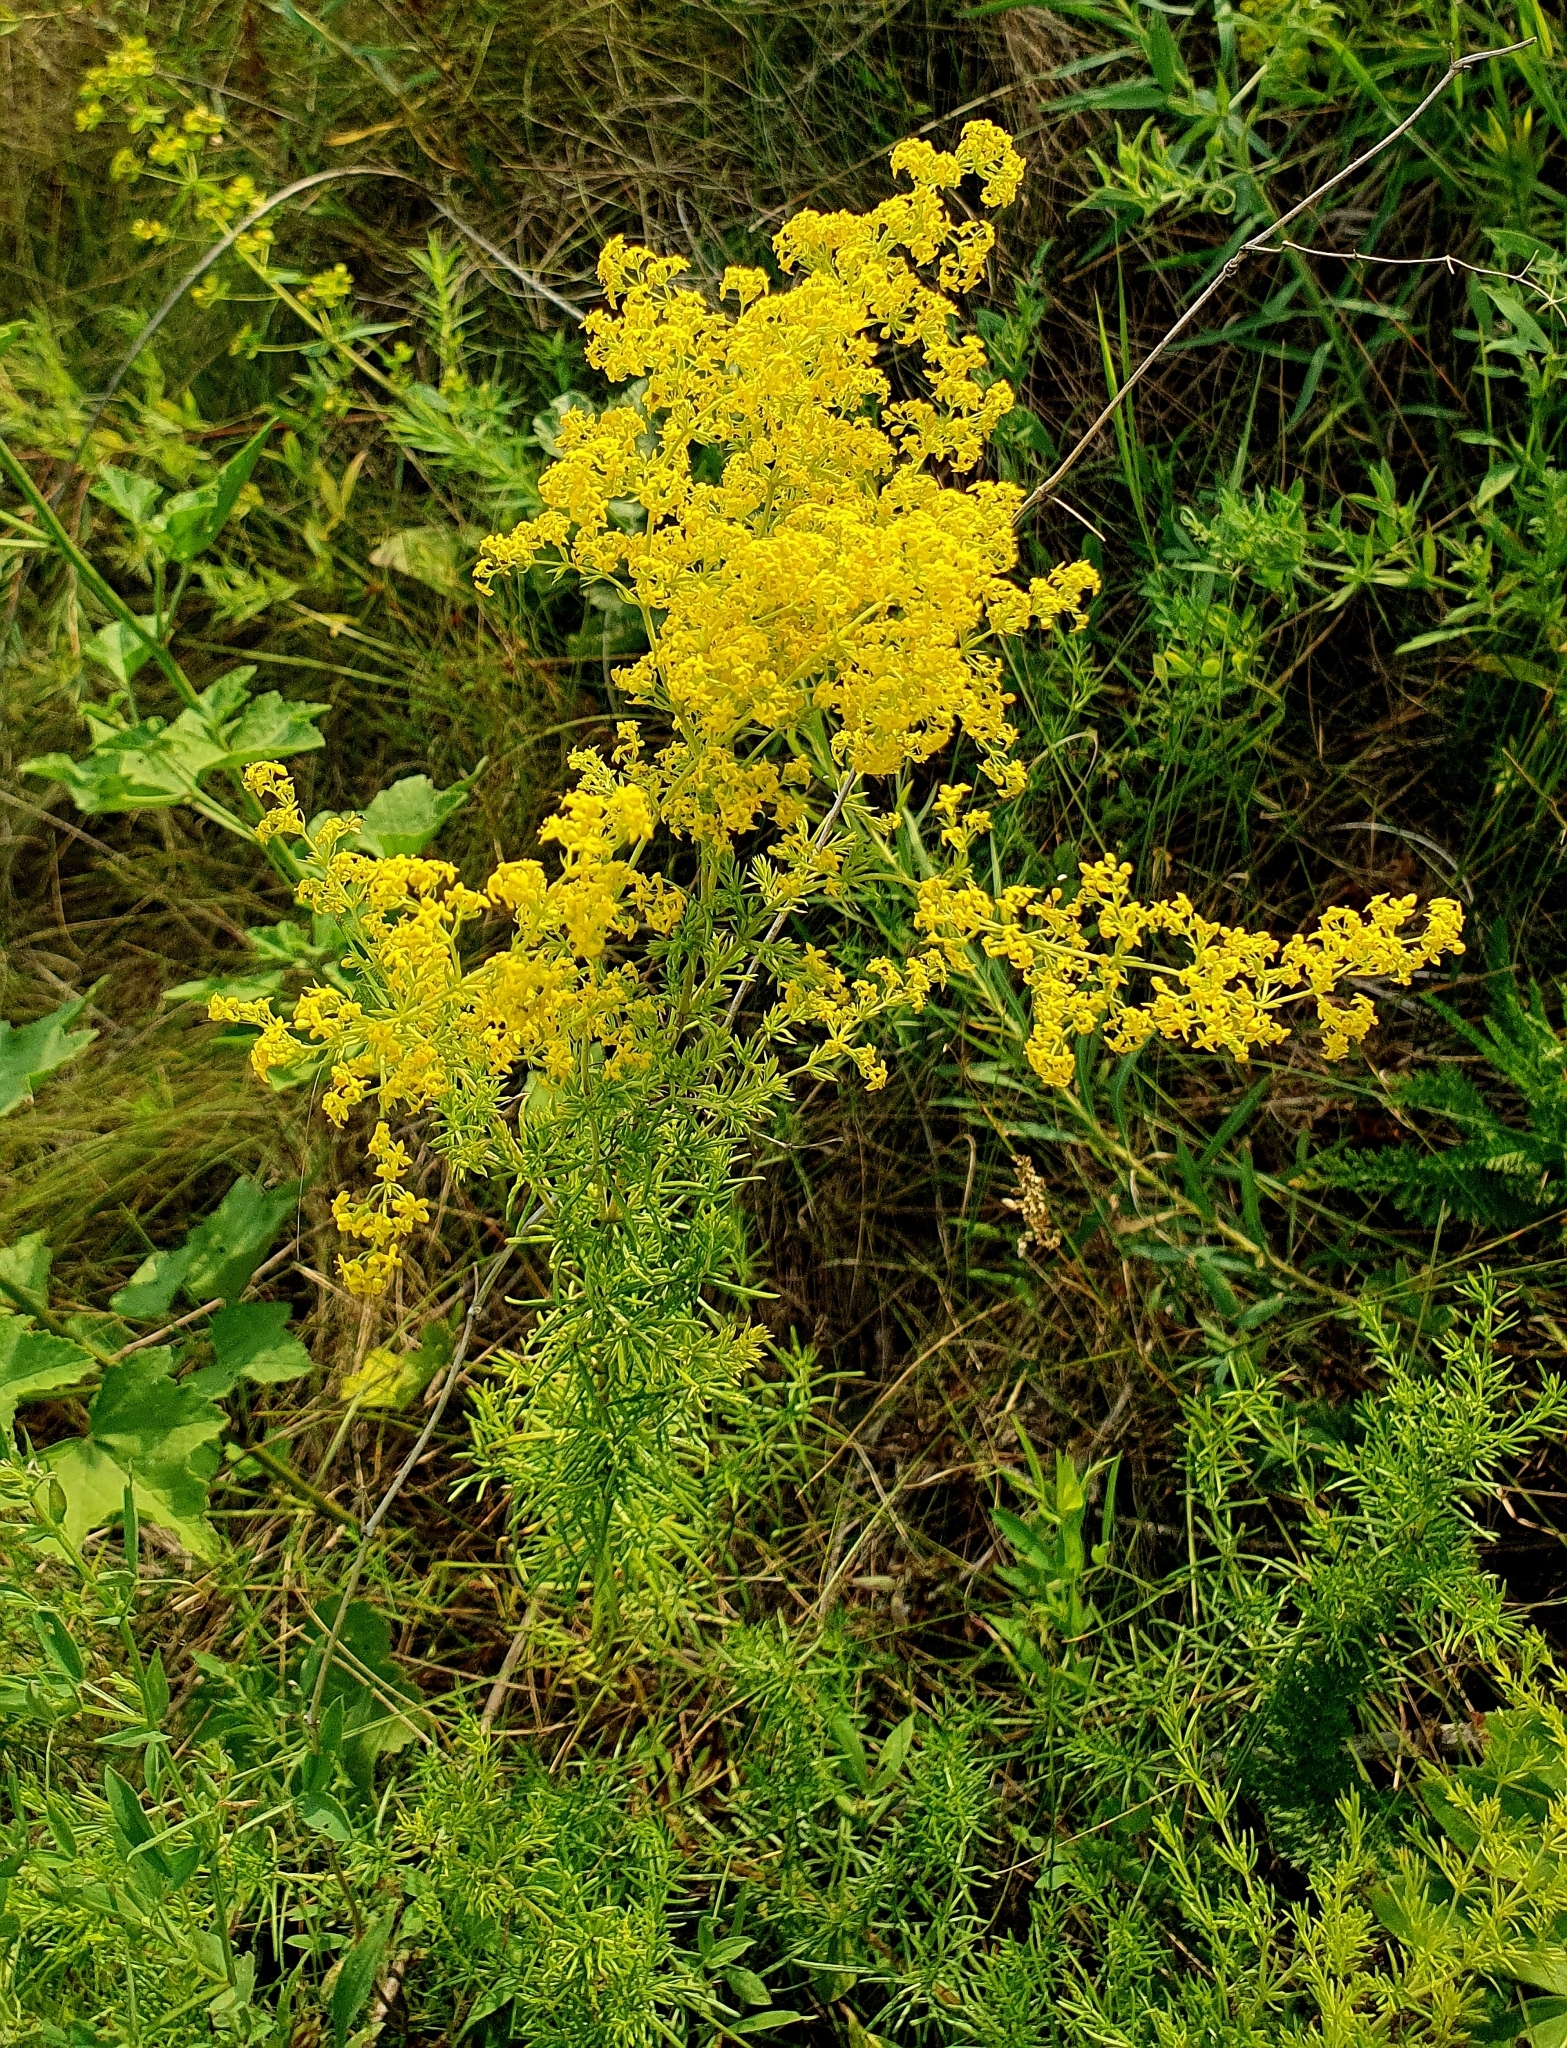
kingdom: Plantae
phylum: Tracheophyta
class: Magnoliopsida
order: Gentianales
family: Rubiaceae
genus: Galium
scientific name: Galium verum
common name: Lady's bedstraw
